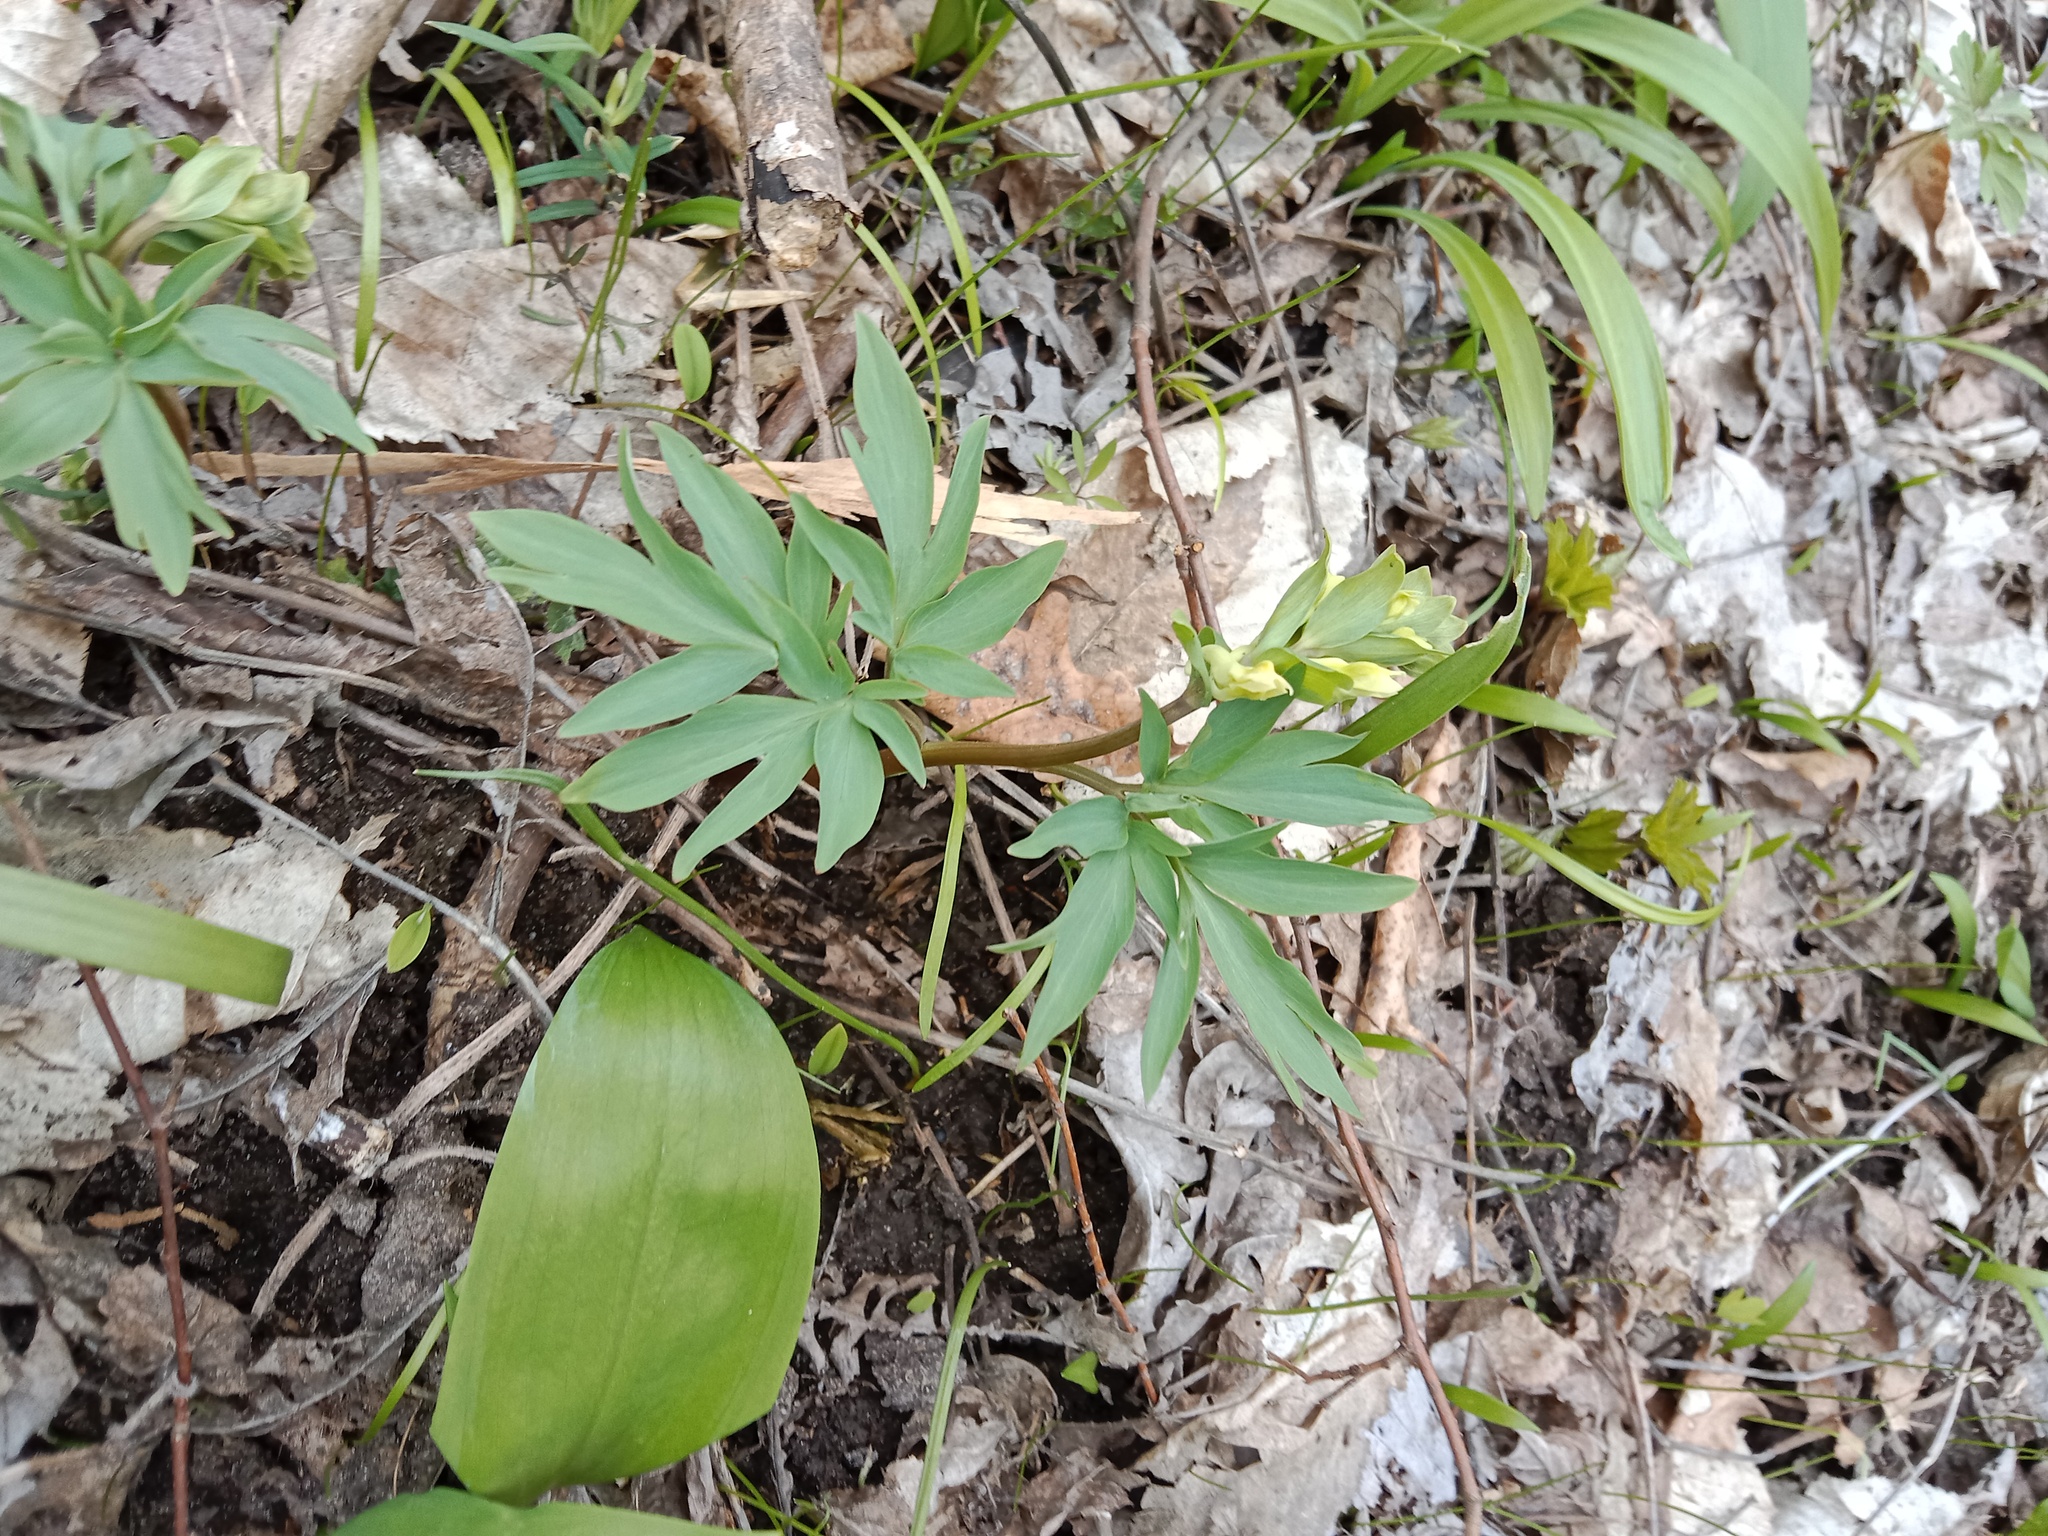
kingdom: Plantae
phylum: Tracheophyta
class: Magnoliopsida
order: Ranunculales
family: Papaveraceae
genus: Corydalis
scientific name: Corydalis cava
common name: Hollowroot
